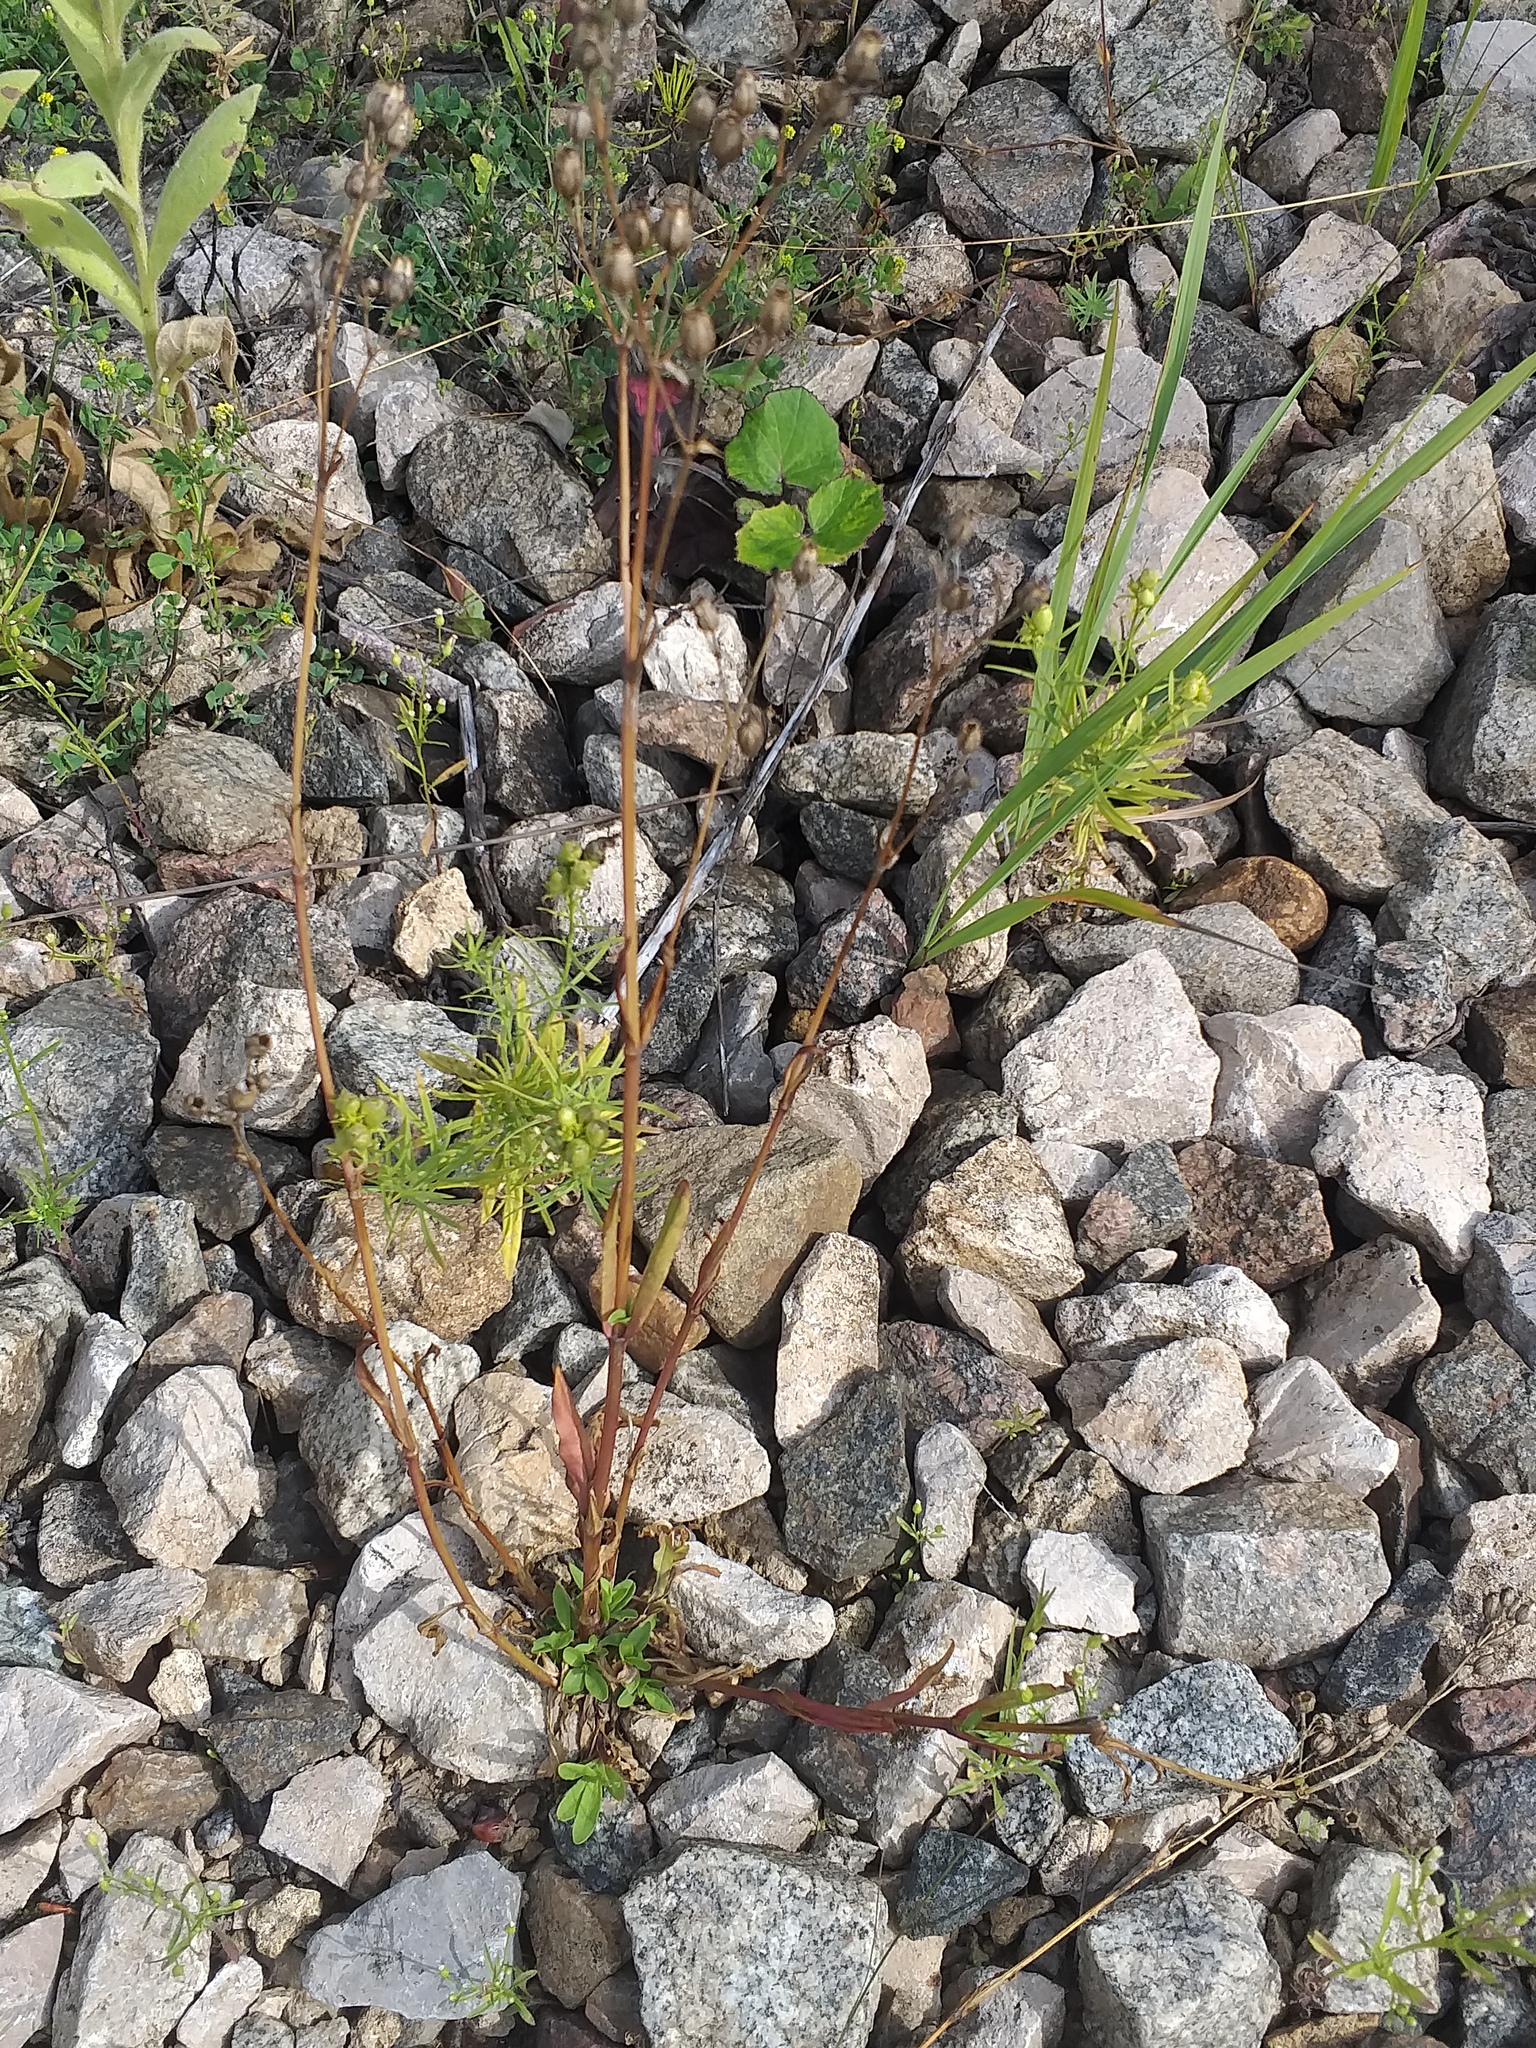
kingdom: Plantae
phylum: Tracheophyta
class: Magnoliopsida
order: Caryophyllales
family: Caryophyllaceae
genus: Silene
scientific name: Silene flos-cuculi
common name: Ragged-robin
